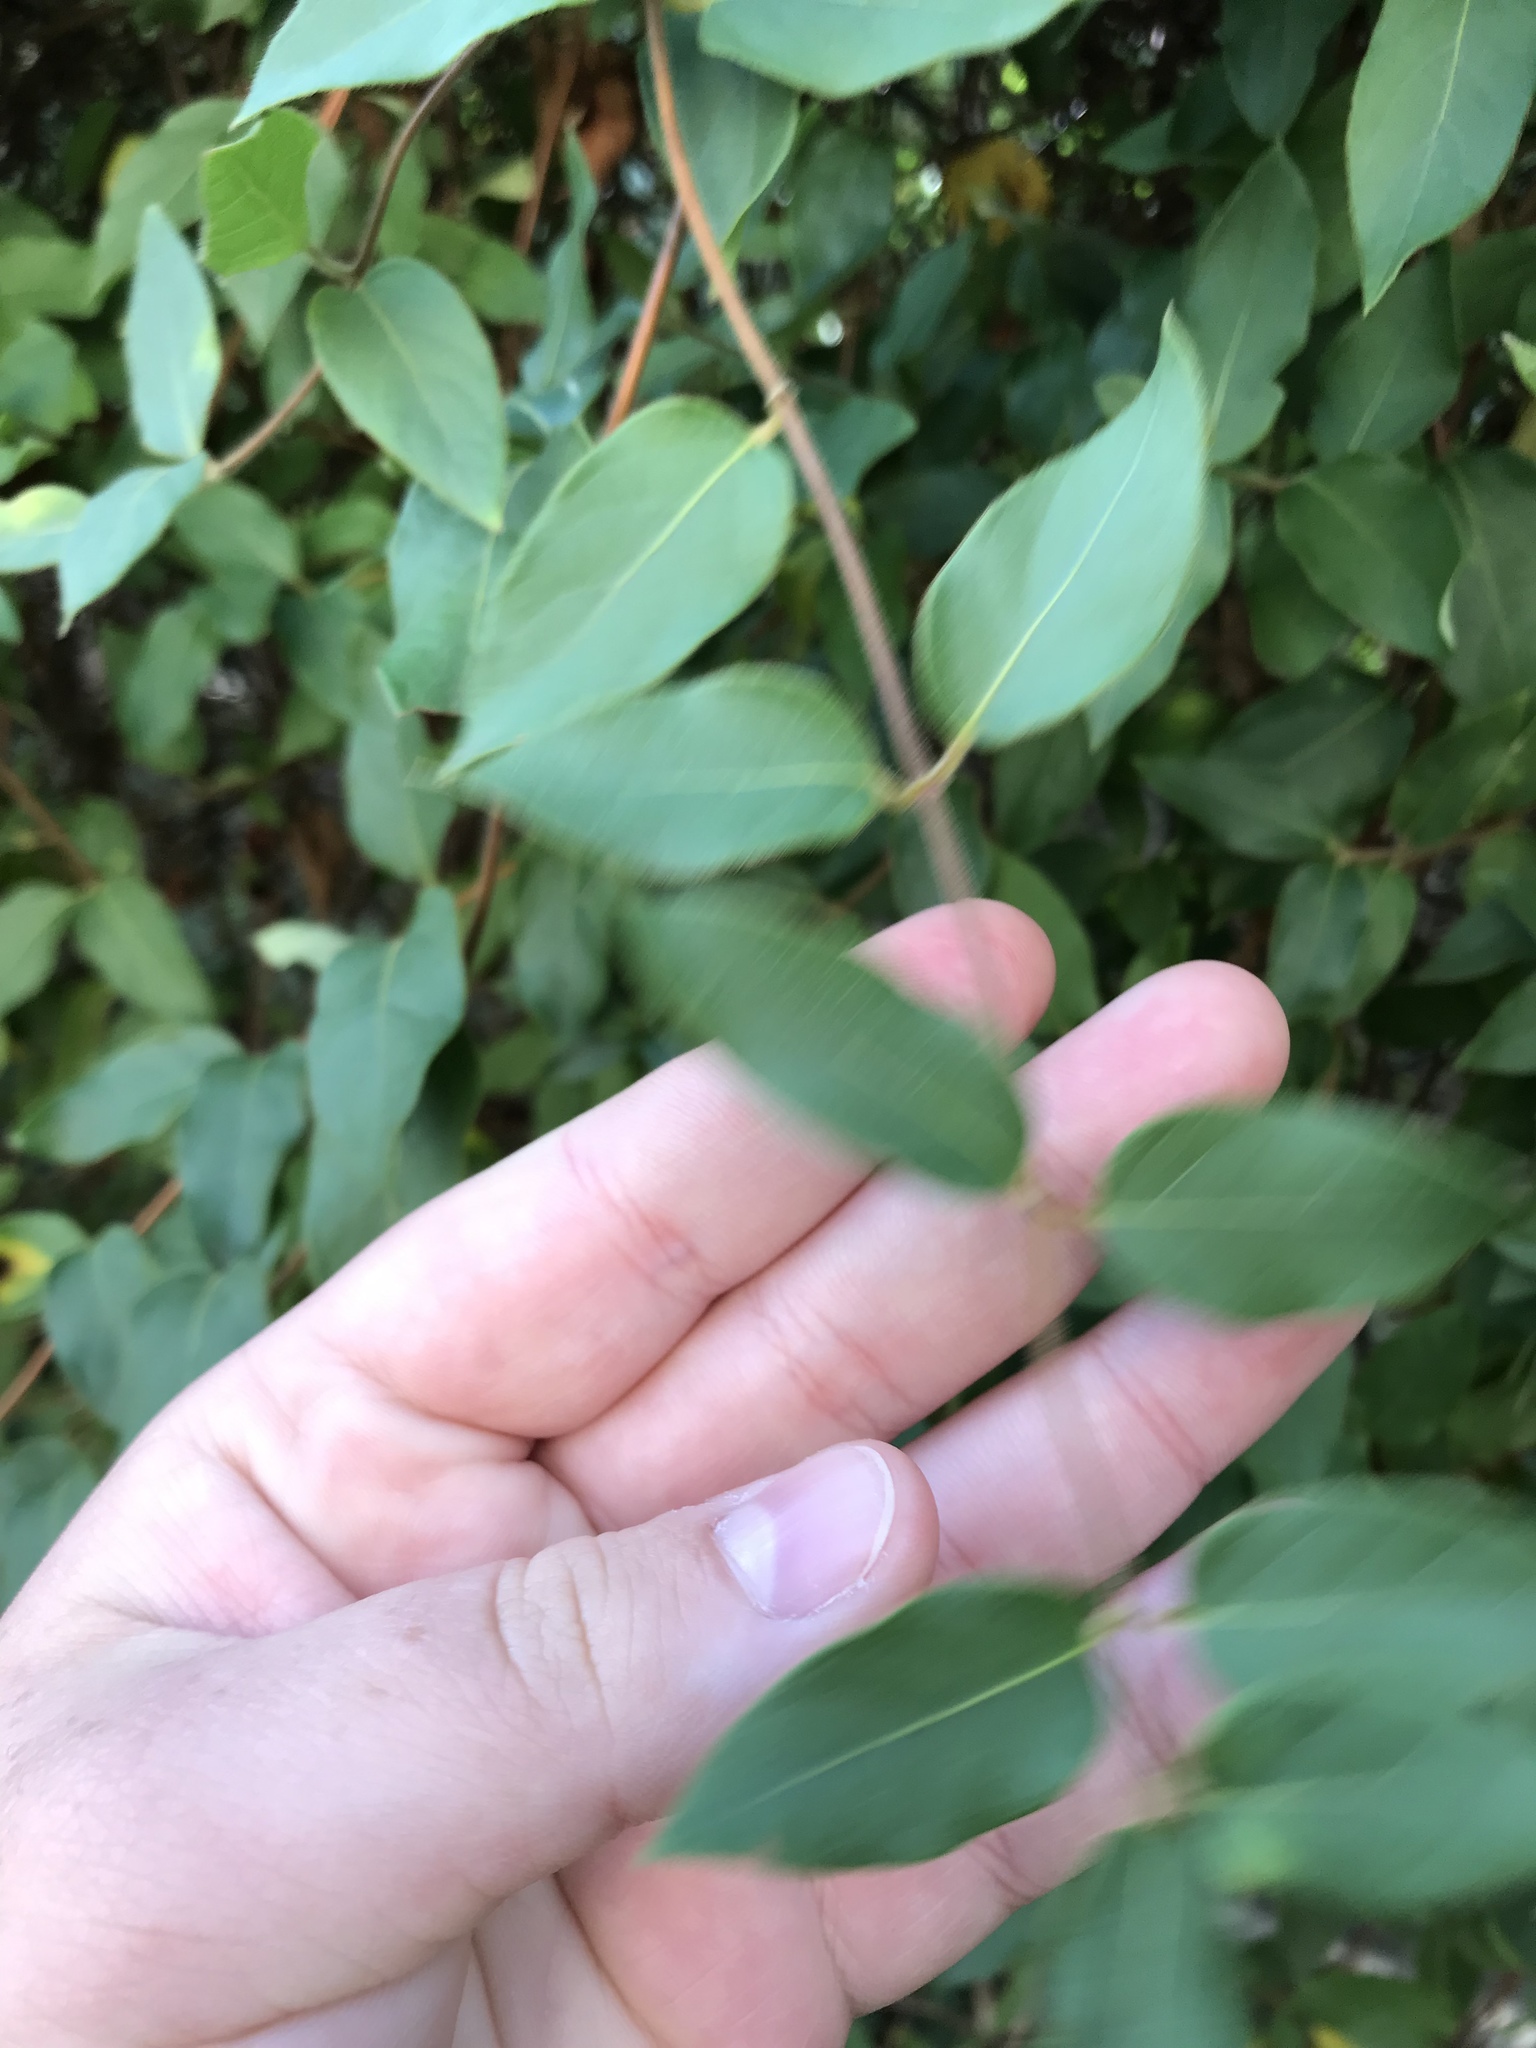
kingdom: Plantae
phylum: Tracheophyta
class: Magnoliopsida
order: Dipsacales
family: Caprifoliaceae
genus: Lonicera
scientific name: Lonicera japonica
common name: Japanese honeysuckle
